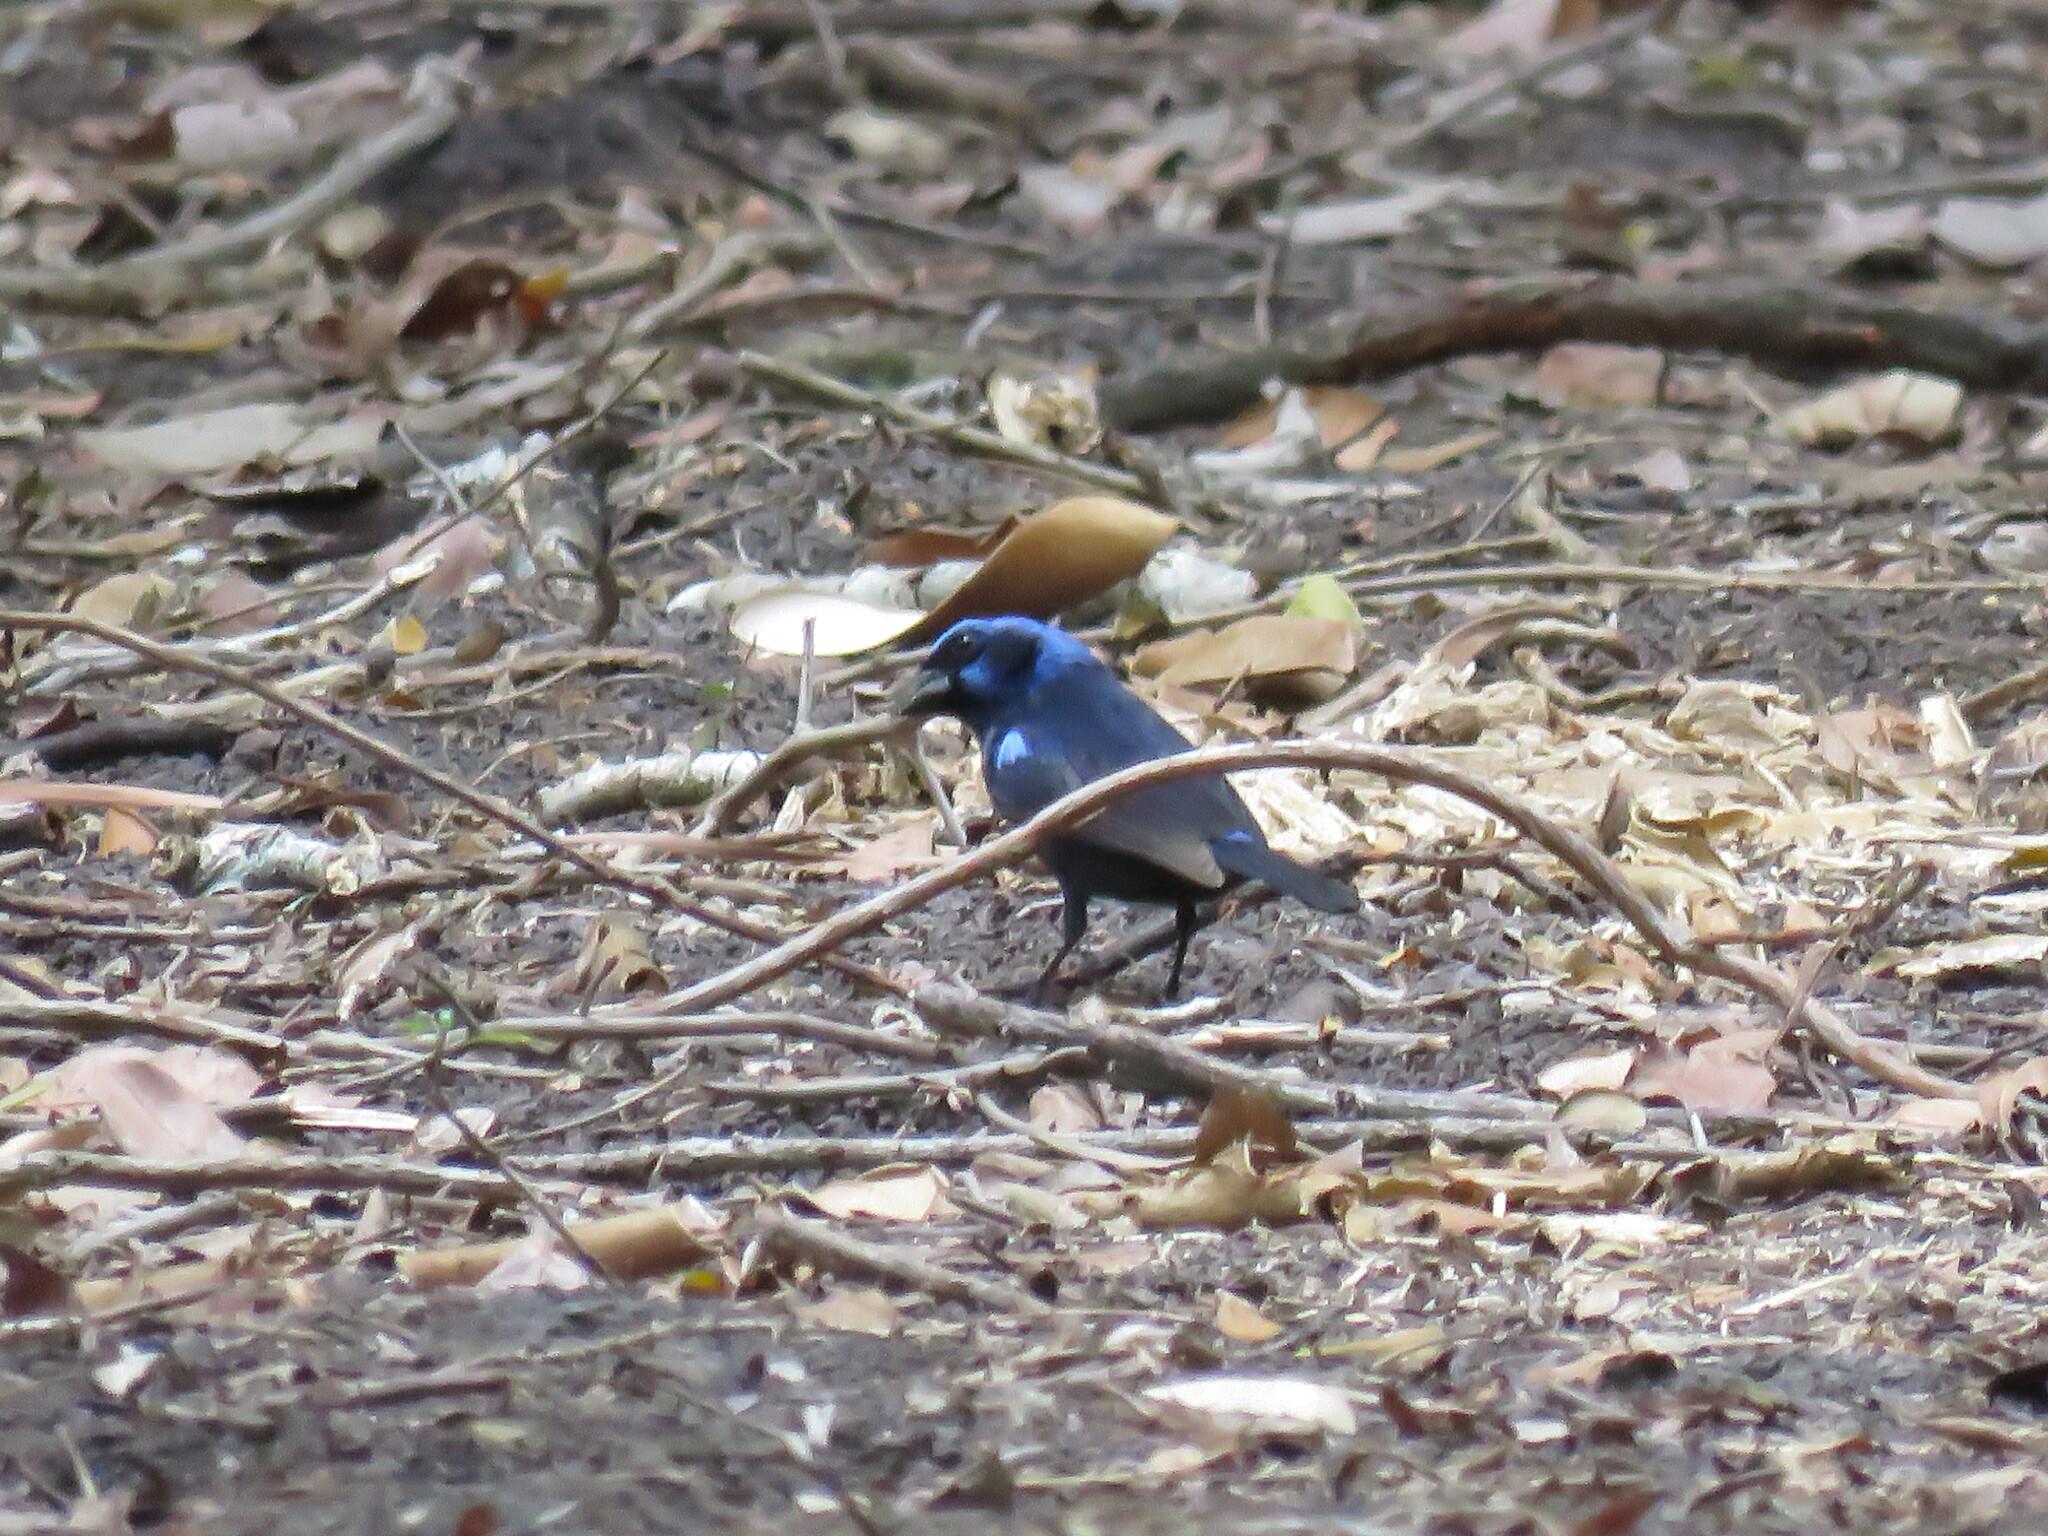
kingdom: Animalia
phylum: Chordata
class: Aves
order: Passeriformes
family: Cardinalidae
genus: Cyanocompsa
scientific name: Cyanocompsa parellina
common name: Blue bunting
